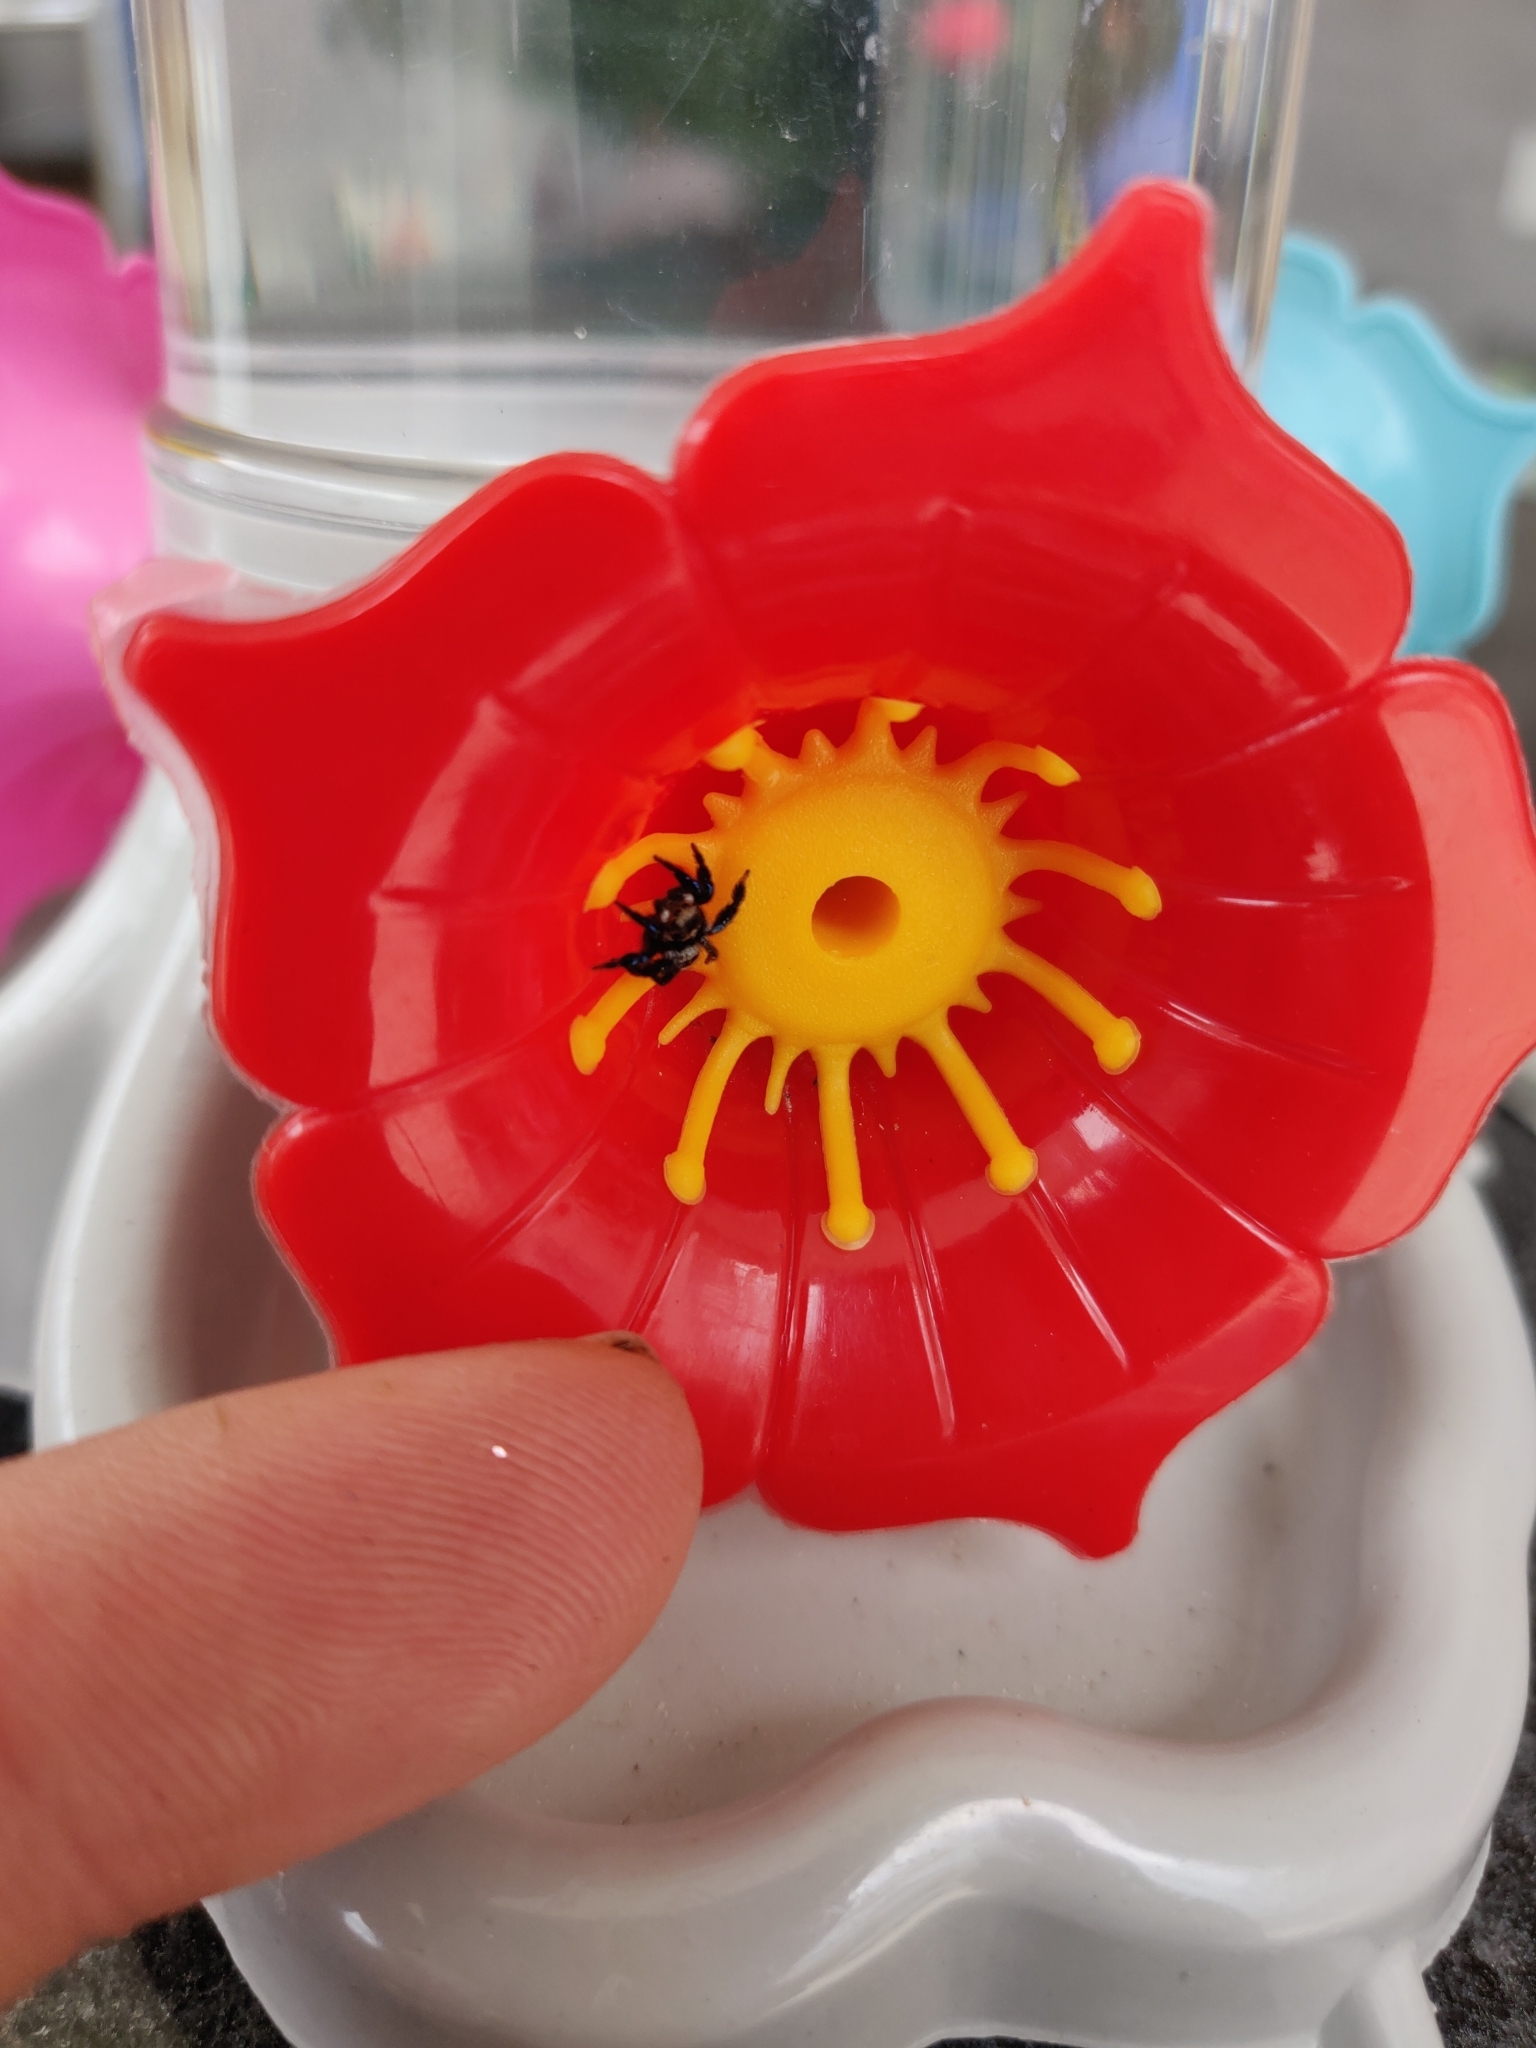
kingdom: Animalia
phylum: Arthropoda
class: Arachnida
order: Araneae
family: Salticidae
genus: Corythalia
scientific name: Corythalia argentinensis
